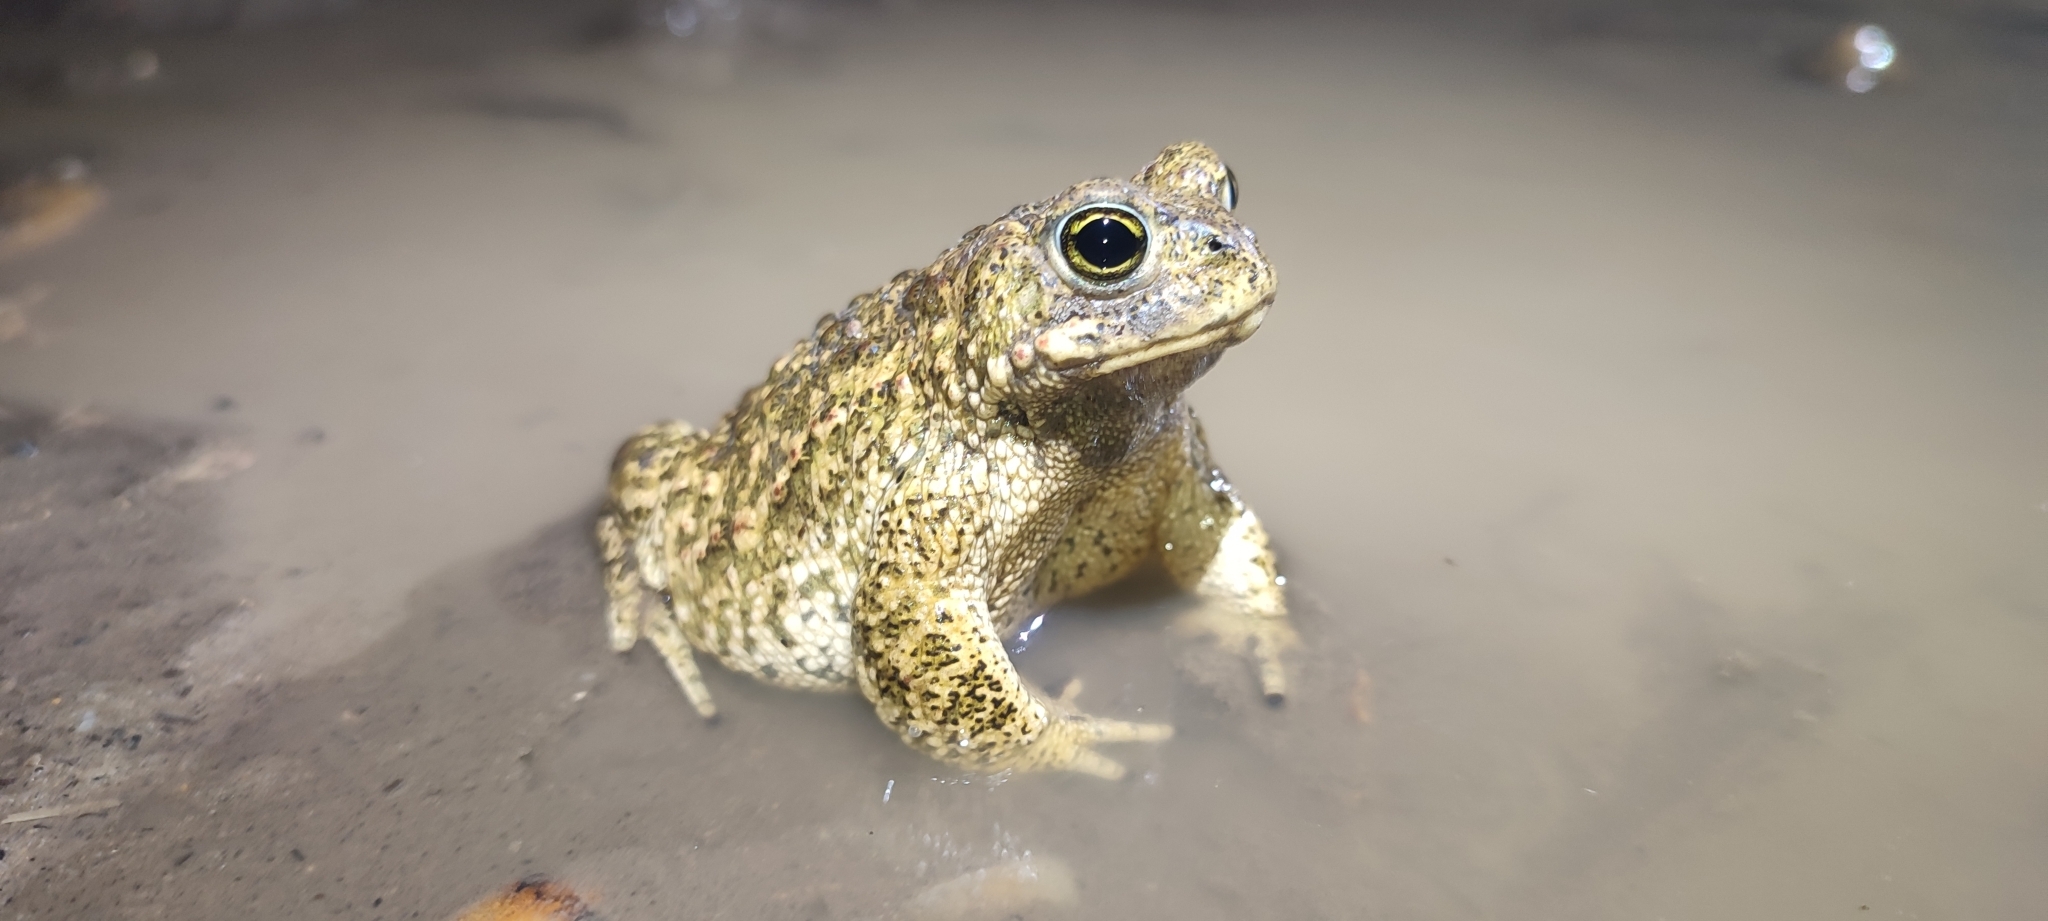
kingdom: Animalia
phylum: Chordata
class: Amphibia
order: Anura
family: Bufonidae
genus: Epidalea
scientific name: Epidalea calamita
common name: Natterjack toad
